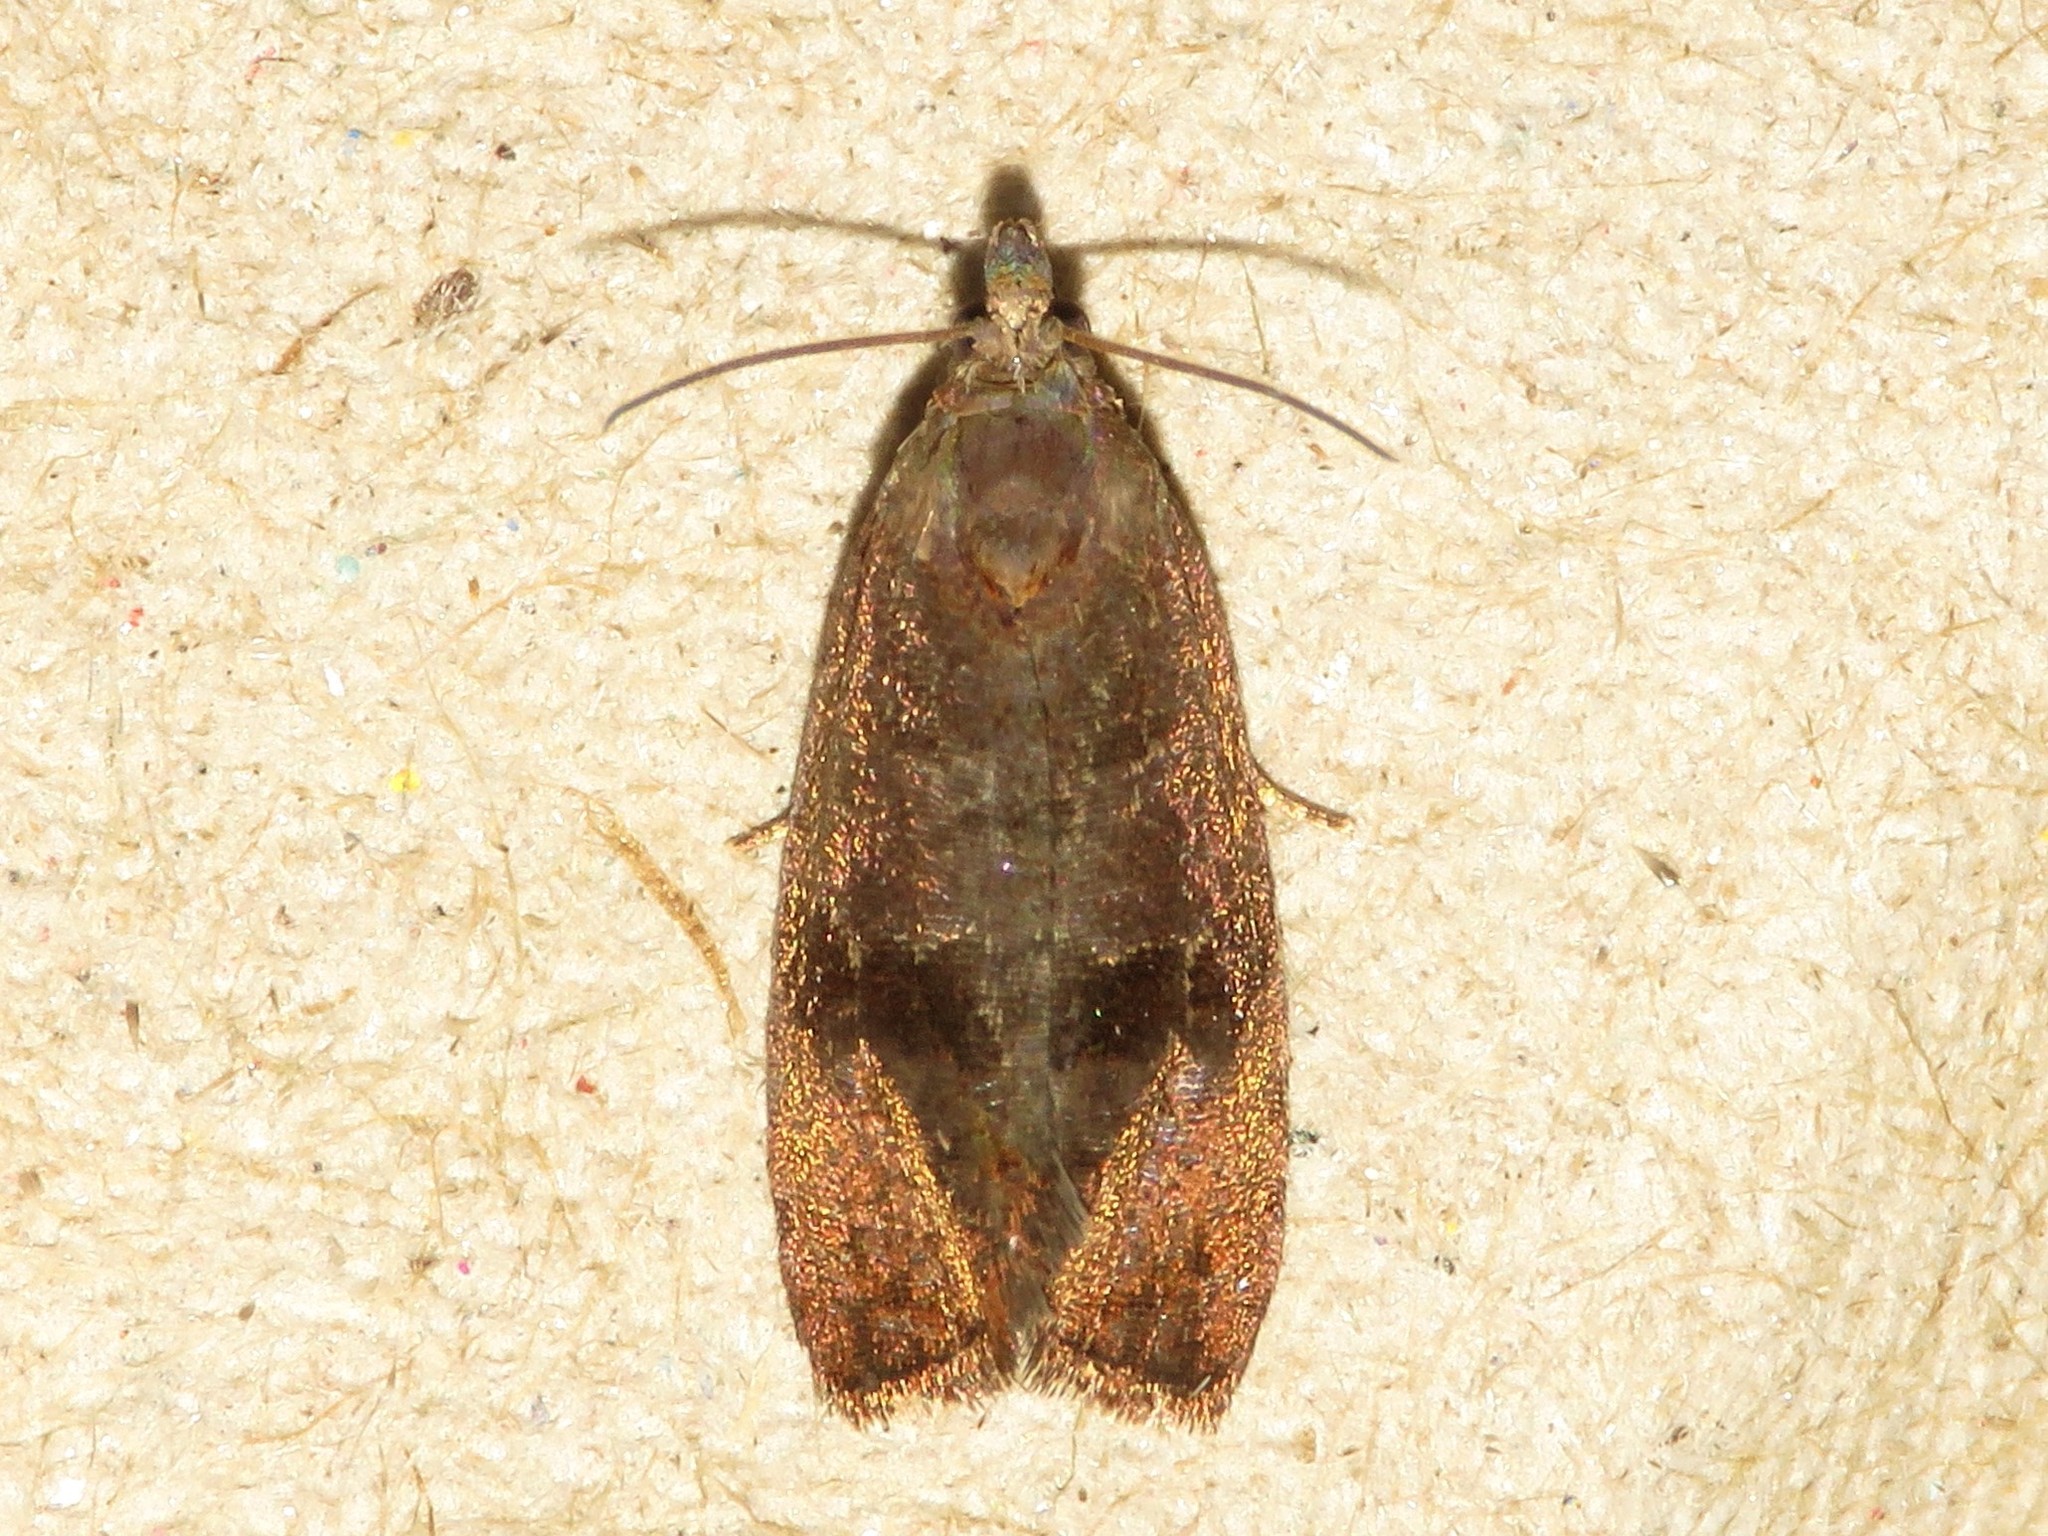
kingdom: Animalia
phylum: Arthropoda
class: Insecta
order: Lepidoptera
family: Tortricidae
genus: Evora
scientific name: Evora hemidesma
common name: Spirea leaftier moth
